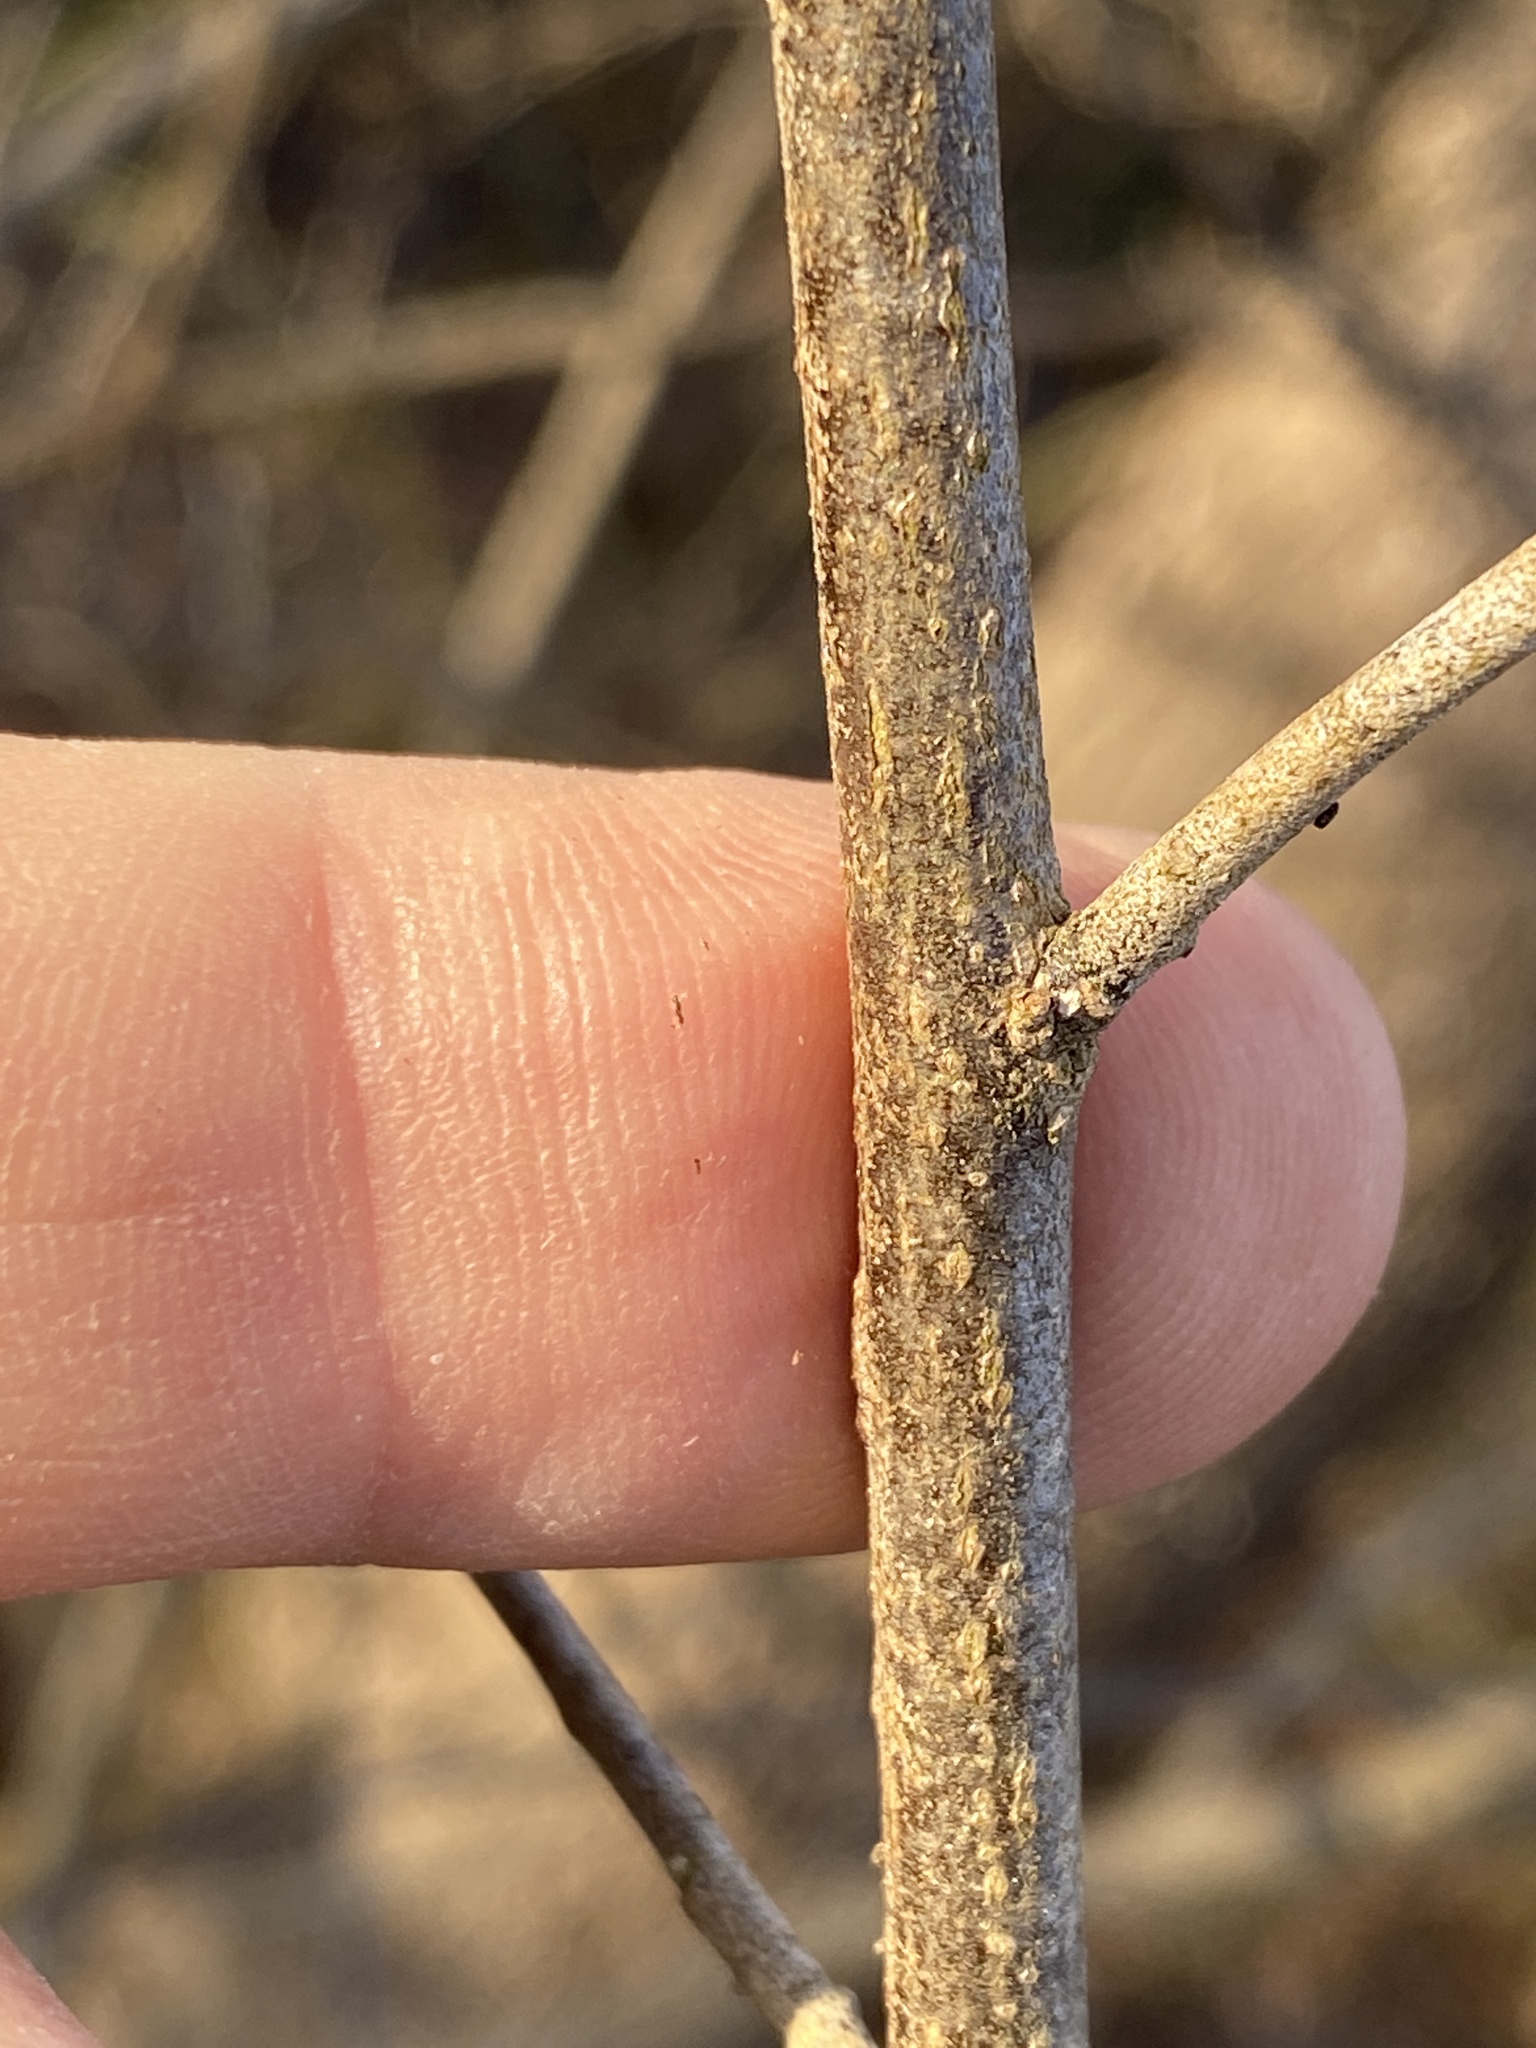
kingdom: Plantae
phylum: Tracheophyta
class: Magnoliopsida
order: Rosales
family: Elaeagnaceae
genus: Elaeagnus
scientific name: Elaeagnus umbellata
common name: Autumn olive
